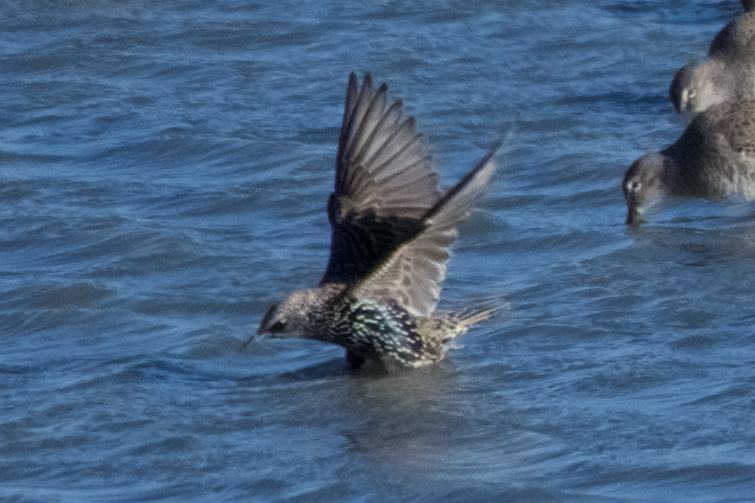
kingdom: Animalia
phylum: Chordata
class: Aves
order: Passeriformes
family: Sturnidae
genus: Sturnus
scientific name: Sturnus vulgaris
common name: Common starling
